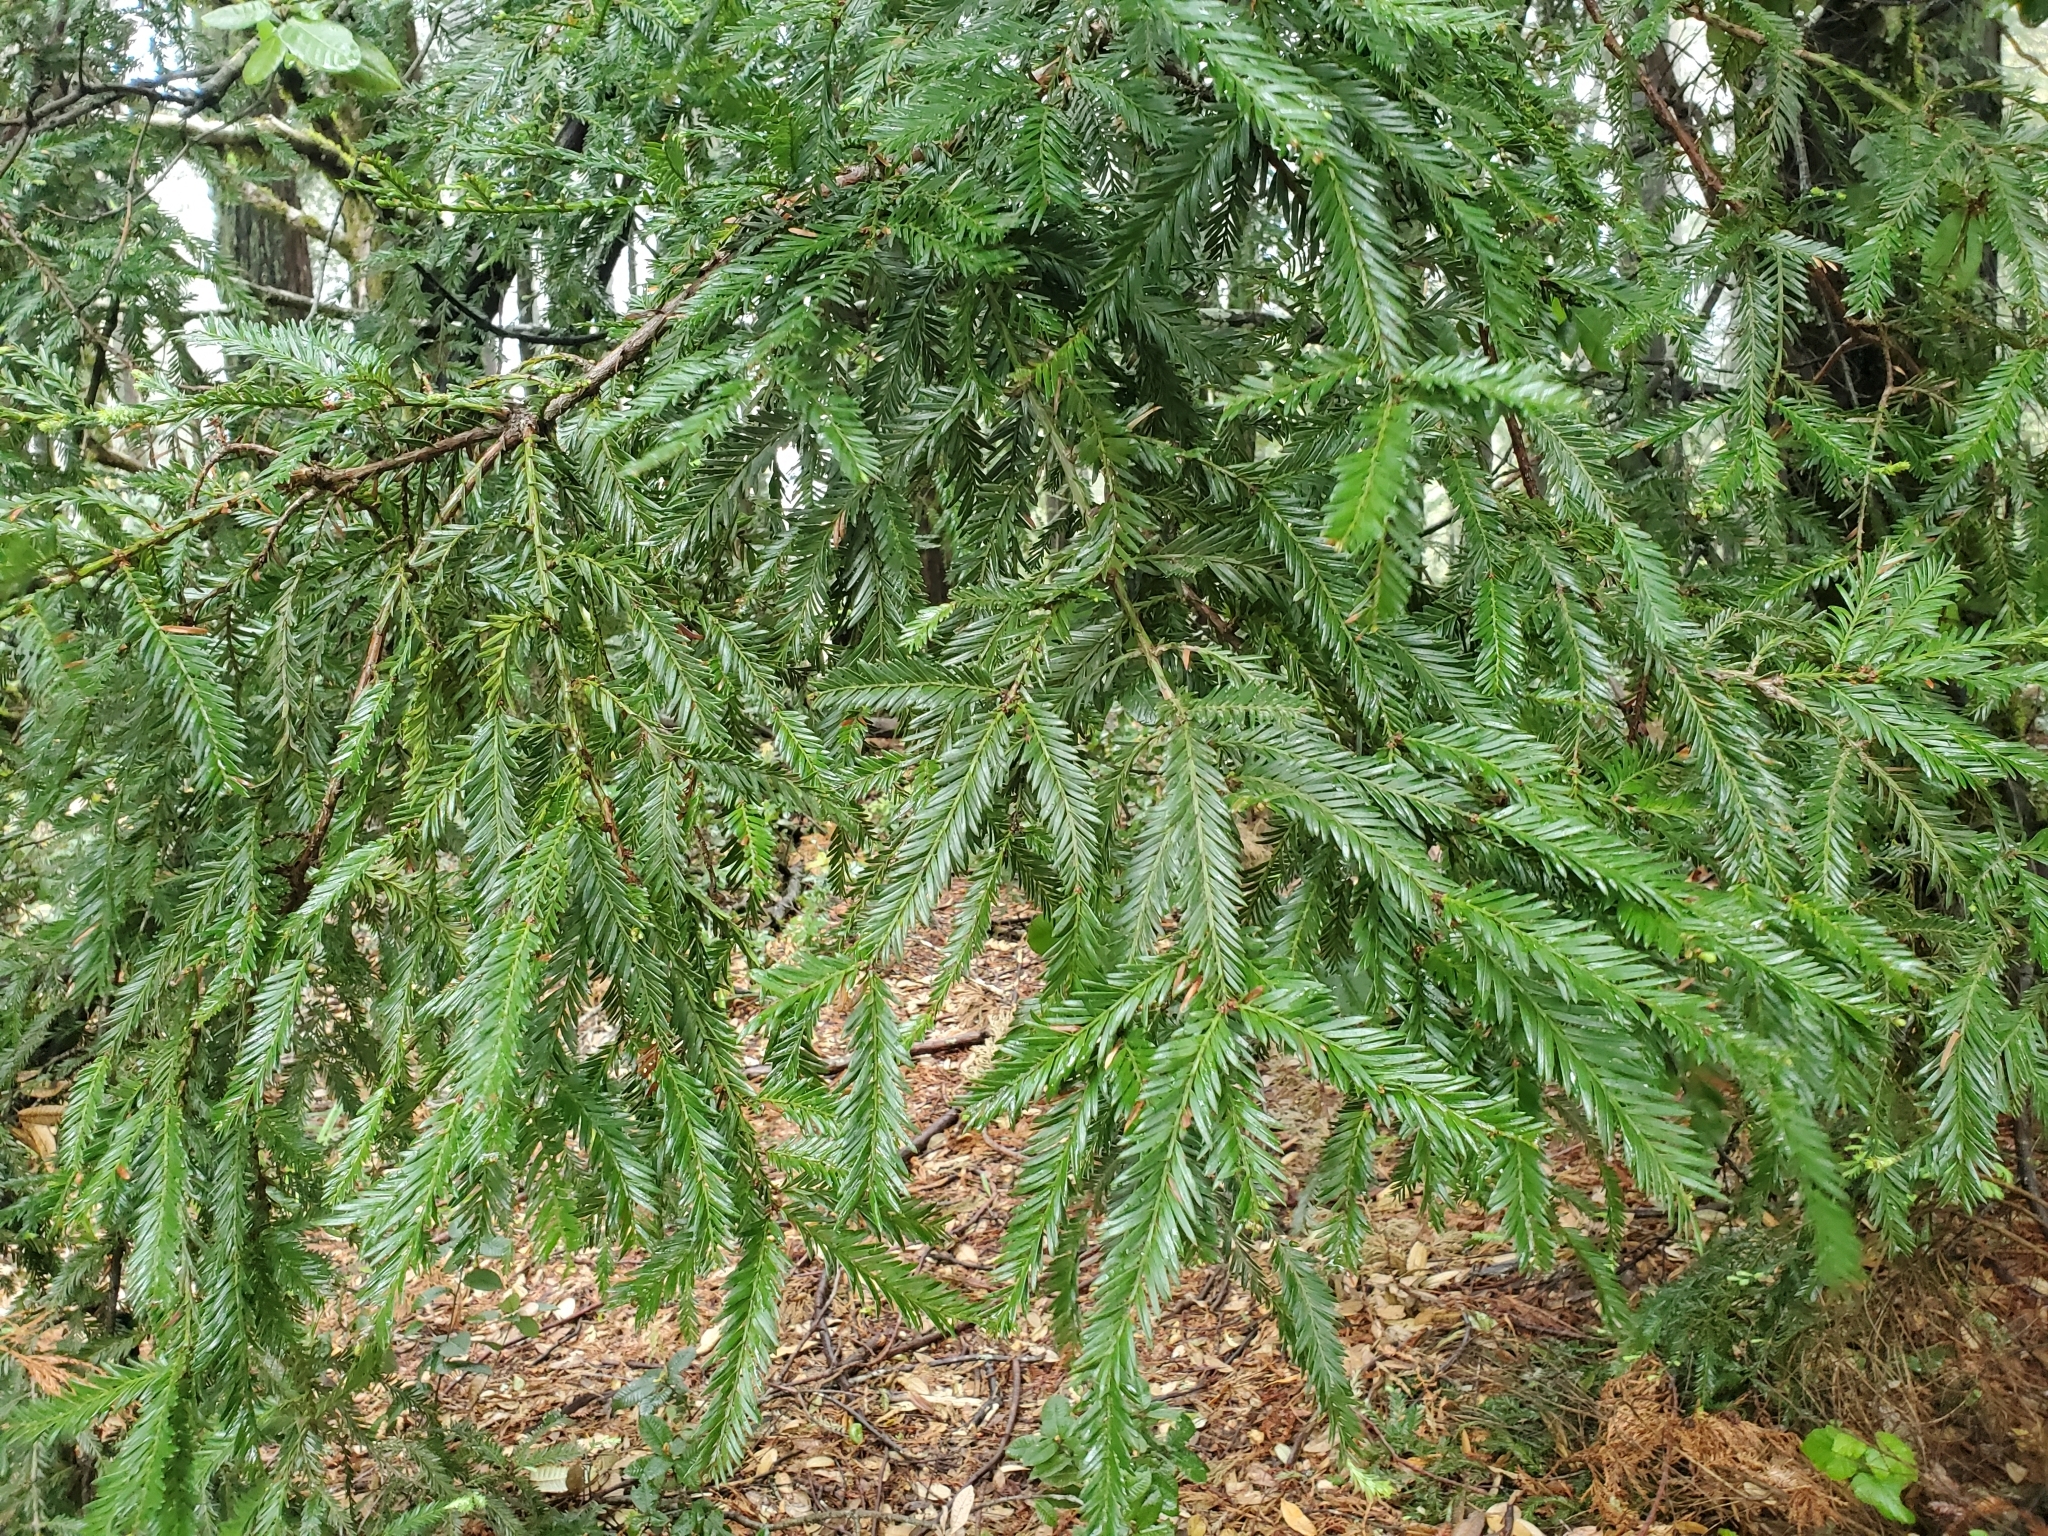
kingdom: Plantae
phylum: Tracheophyta
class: Pinopsida
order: Pinales
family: Cupressaceae
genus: Sequoia
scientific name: Sequoia sempervirens
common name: Coast redwood
